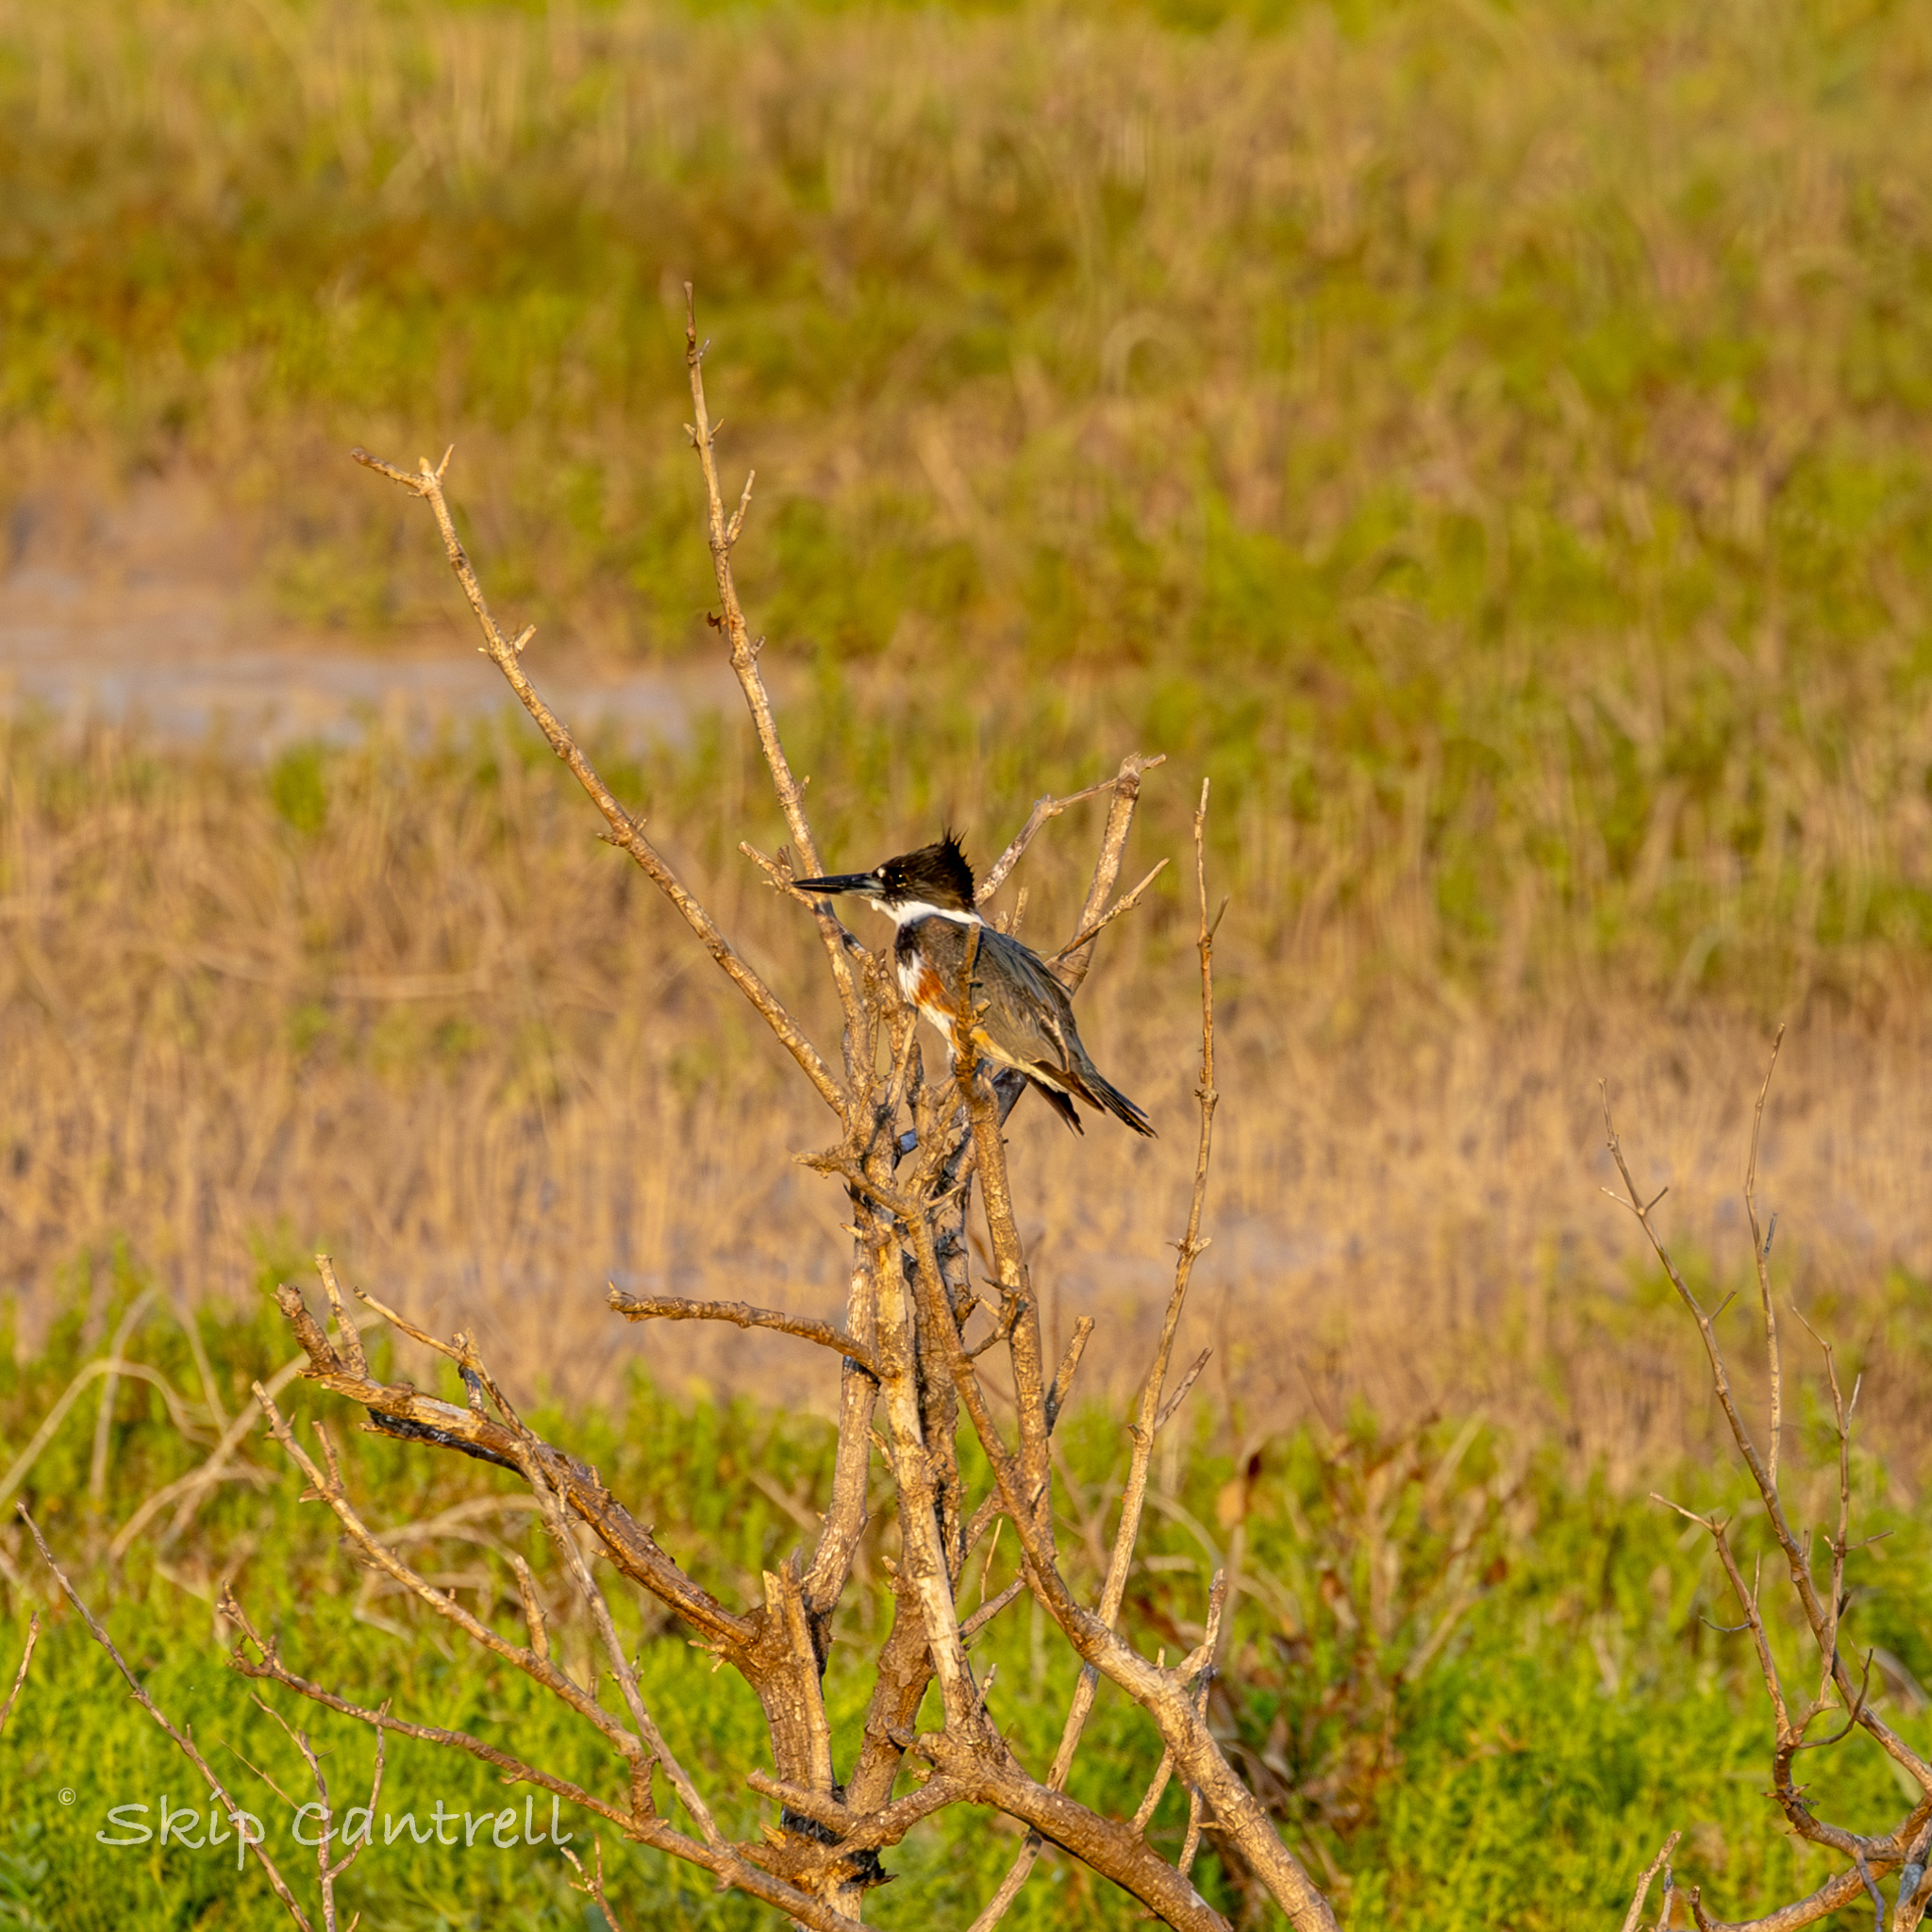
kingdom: Animalia
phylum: Chordata
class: Aves
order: Coraciiformes
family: Alcedinidae
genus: Megaceryle
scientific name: Megaceryle alcyon
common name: Belted kingfisher
